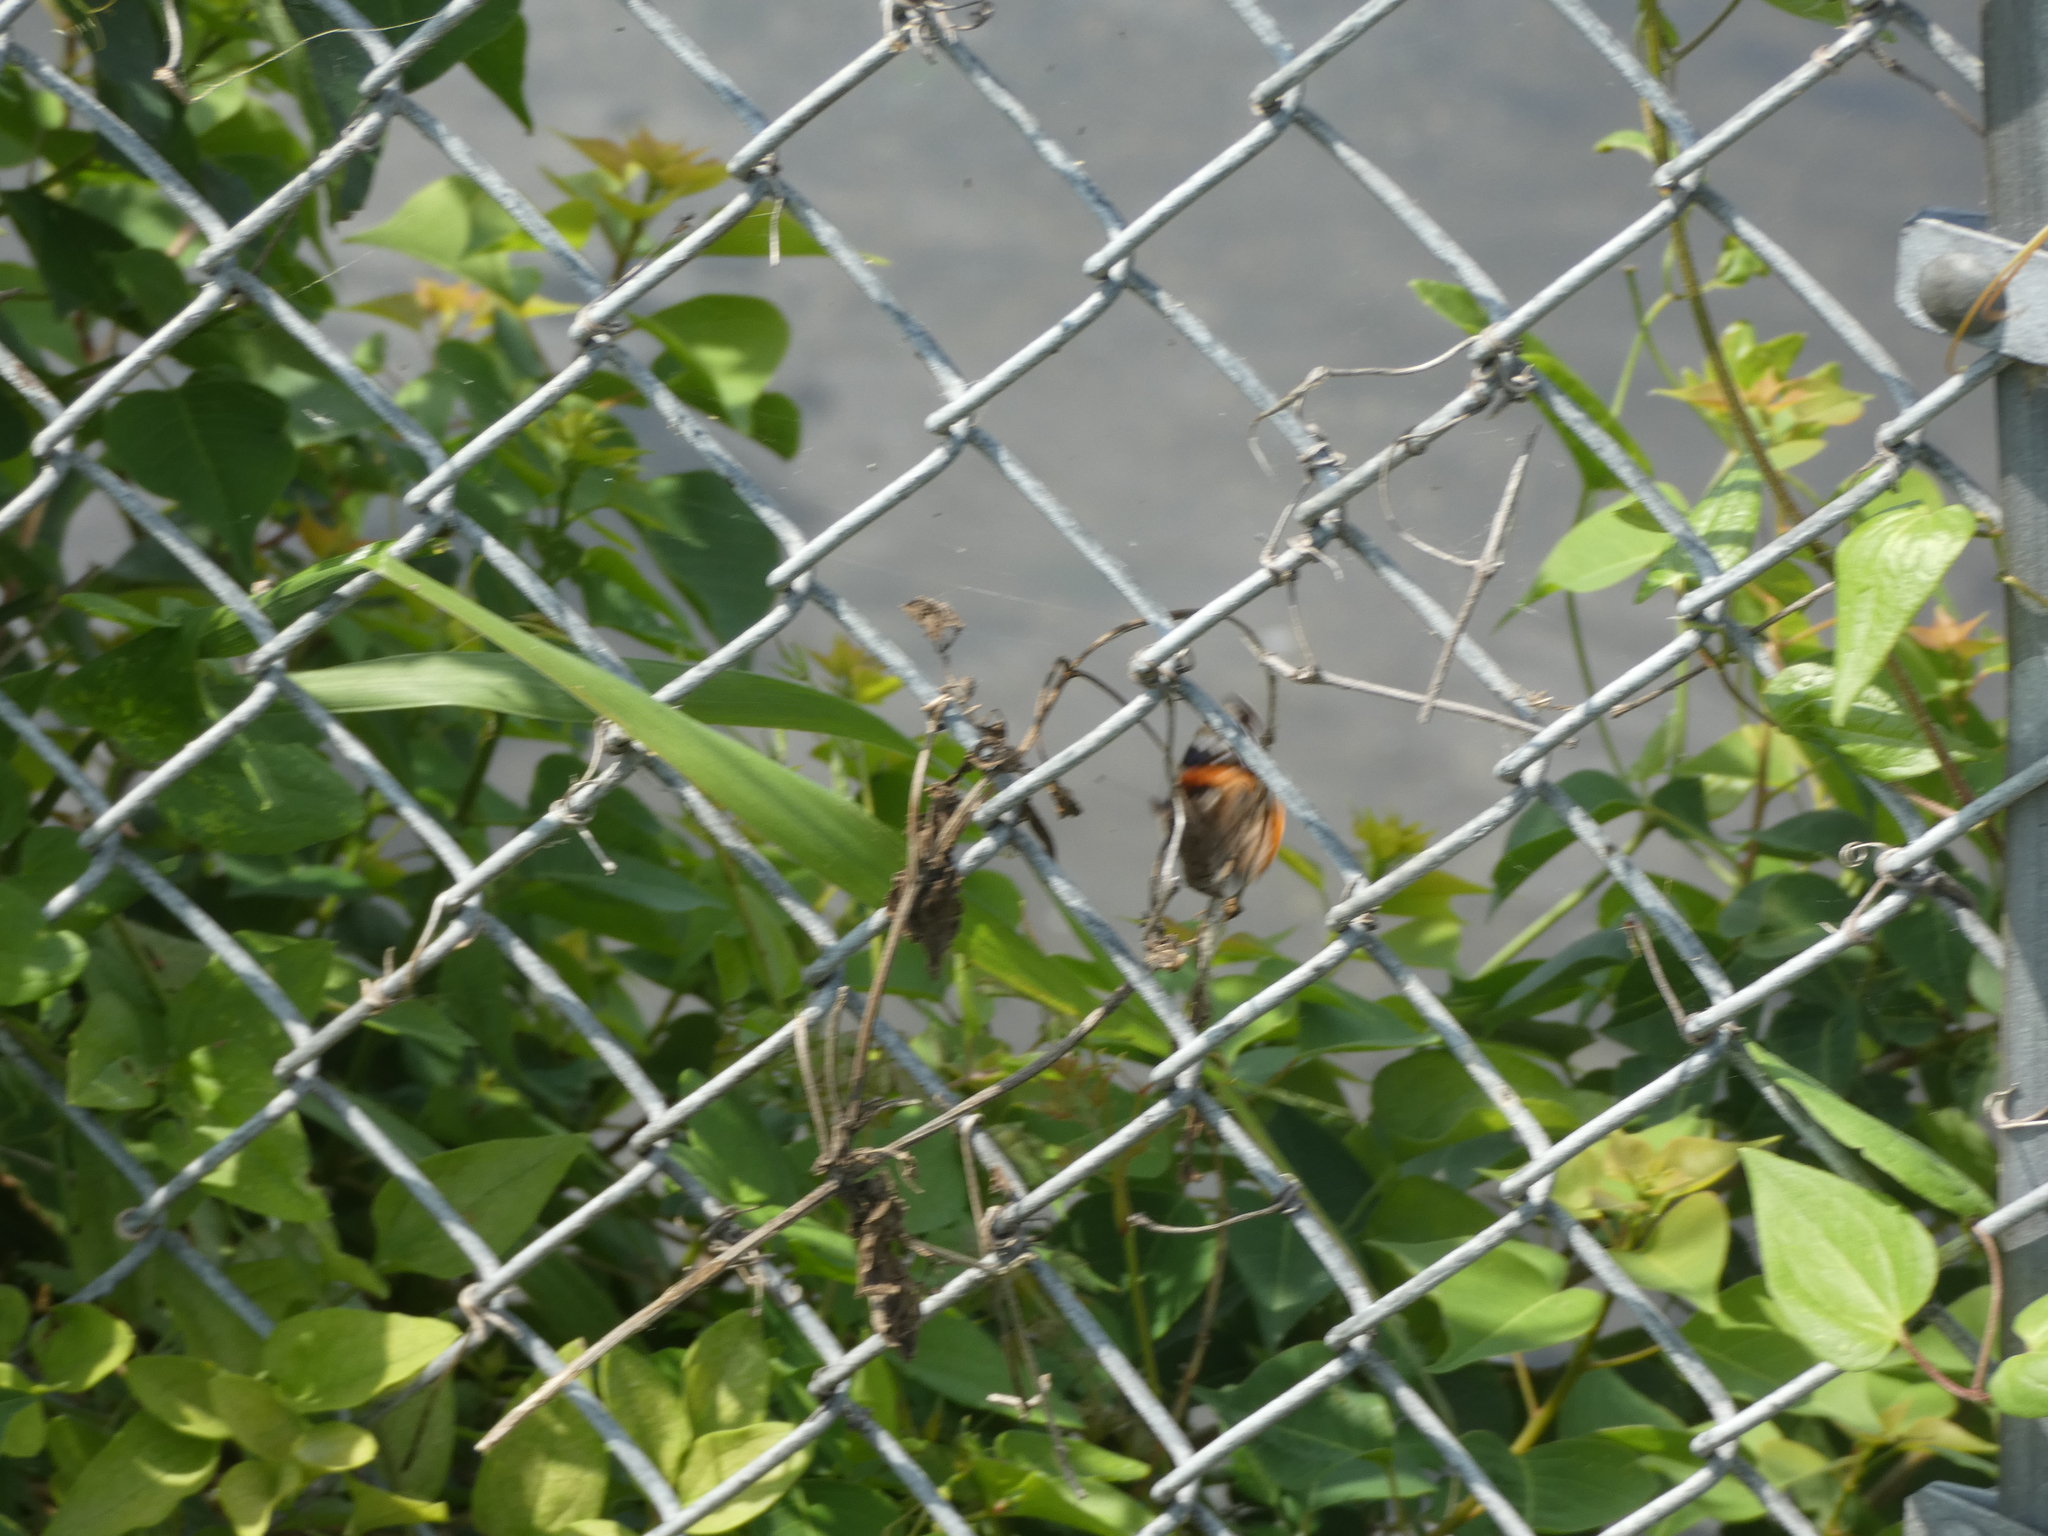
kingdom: Animalia
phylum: Arthropoda
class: Insecta
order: Lepidoptera
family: Nymphalidae
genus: Vanessa
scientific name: Vanessa atalanta
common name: Red admiral
